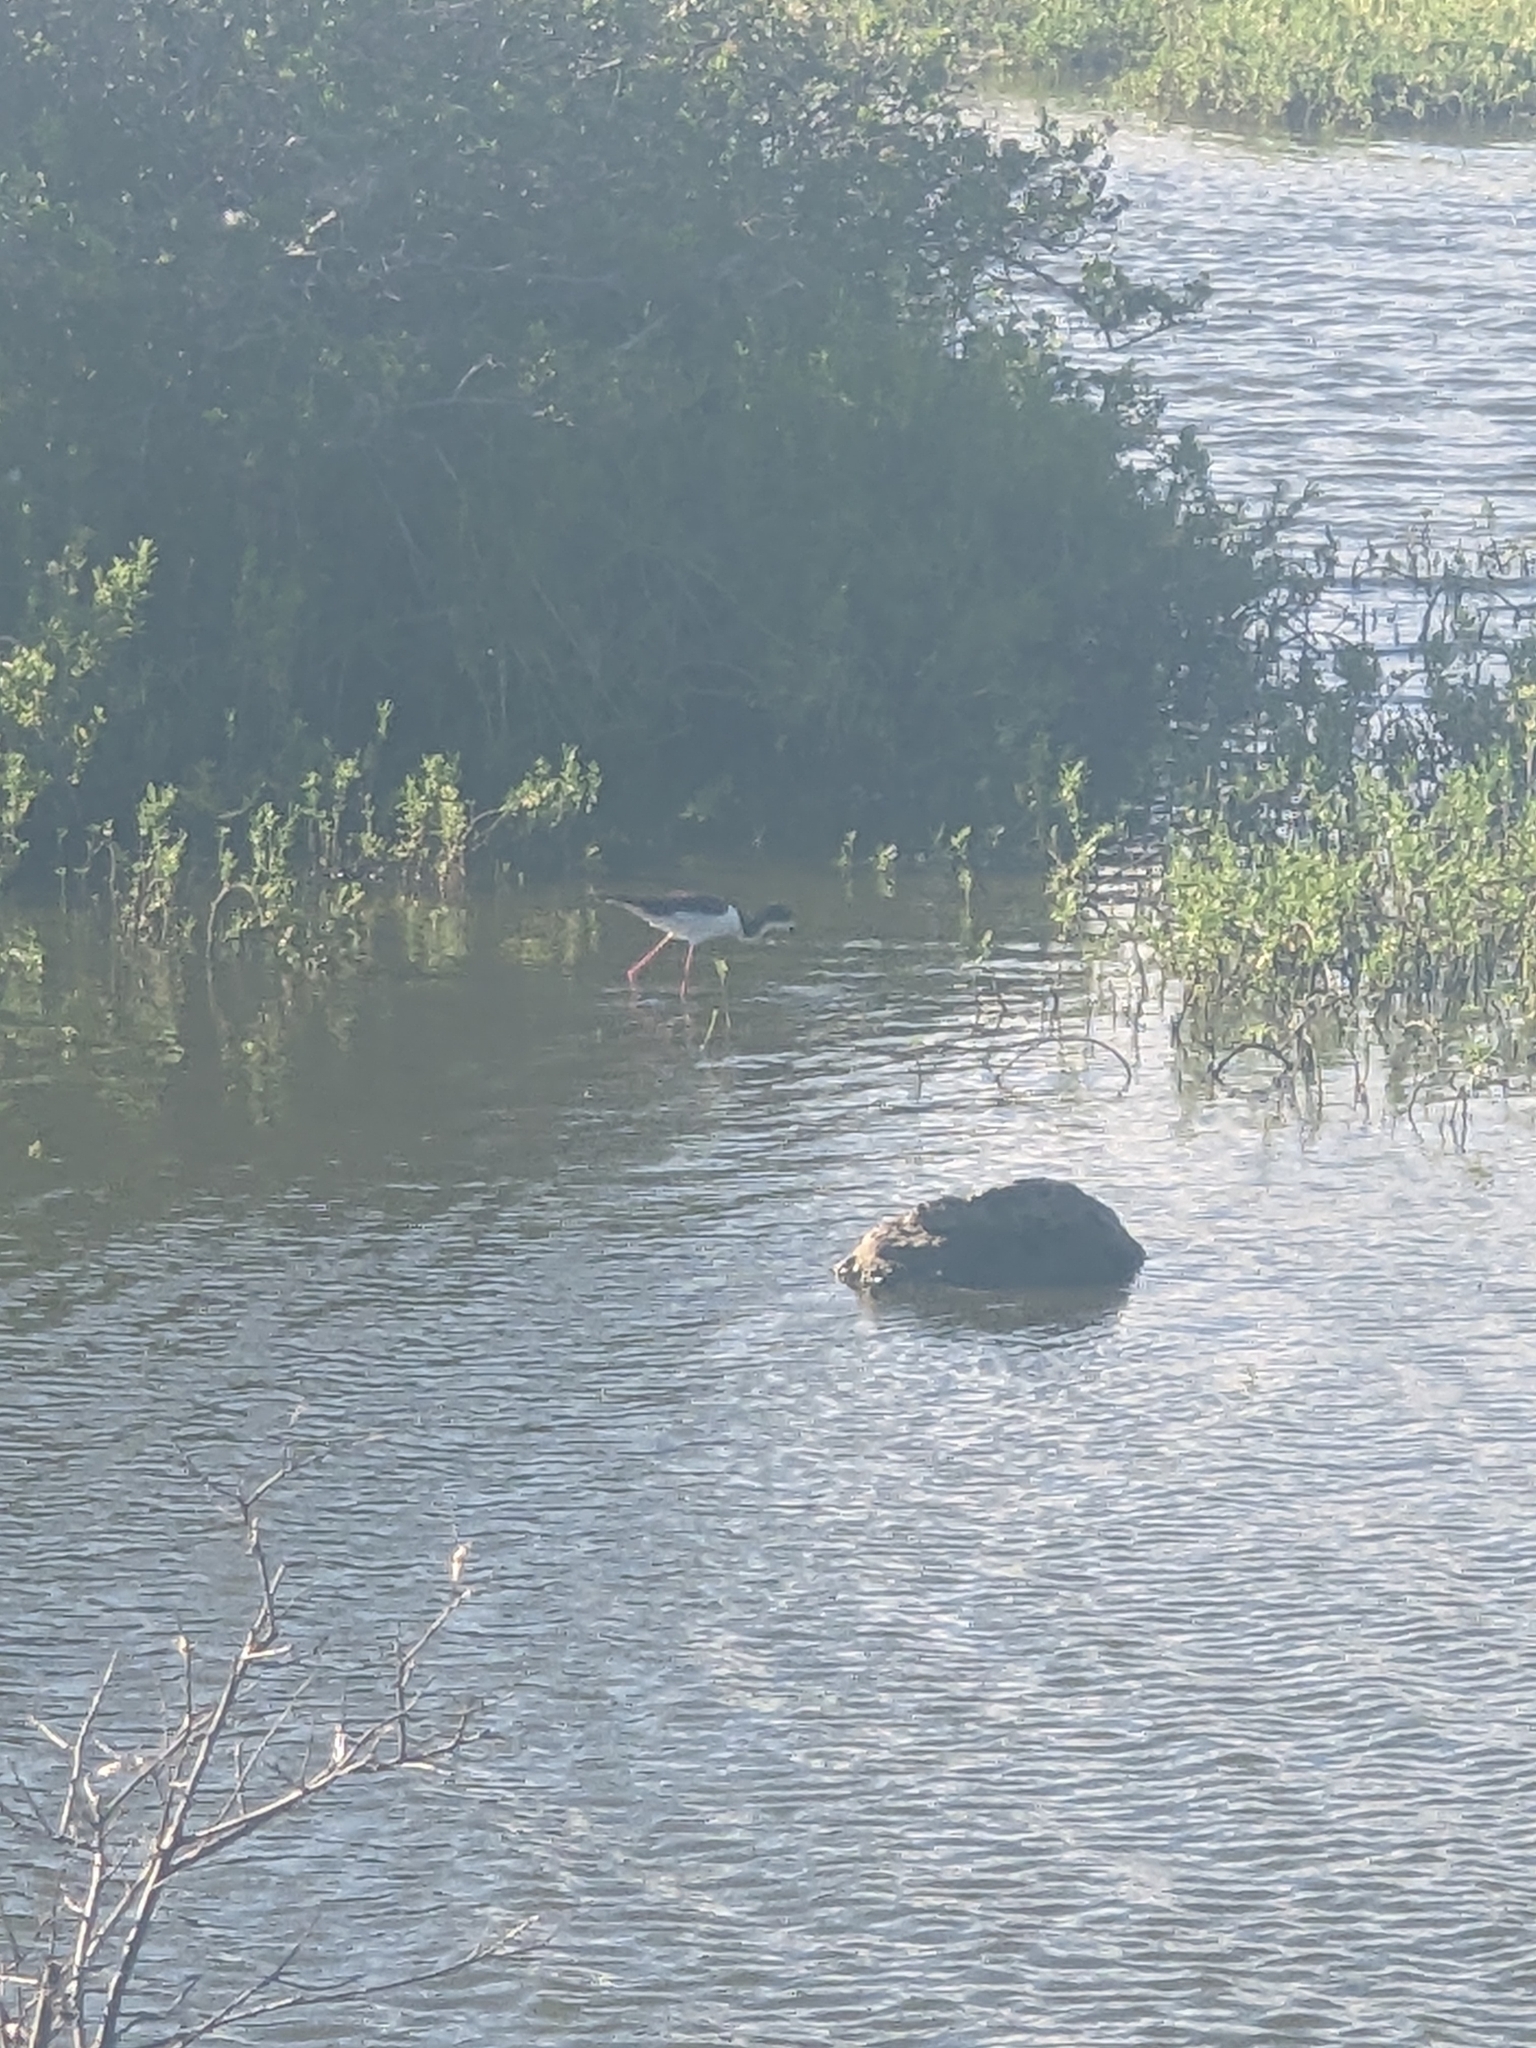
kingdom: Animalia
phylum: Chordata
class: Aves
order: Charadriiformes
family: Recurvirostridae
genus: Himantopus
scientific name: Himantopus mexicanus
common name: Black-necked stilt
